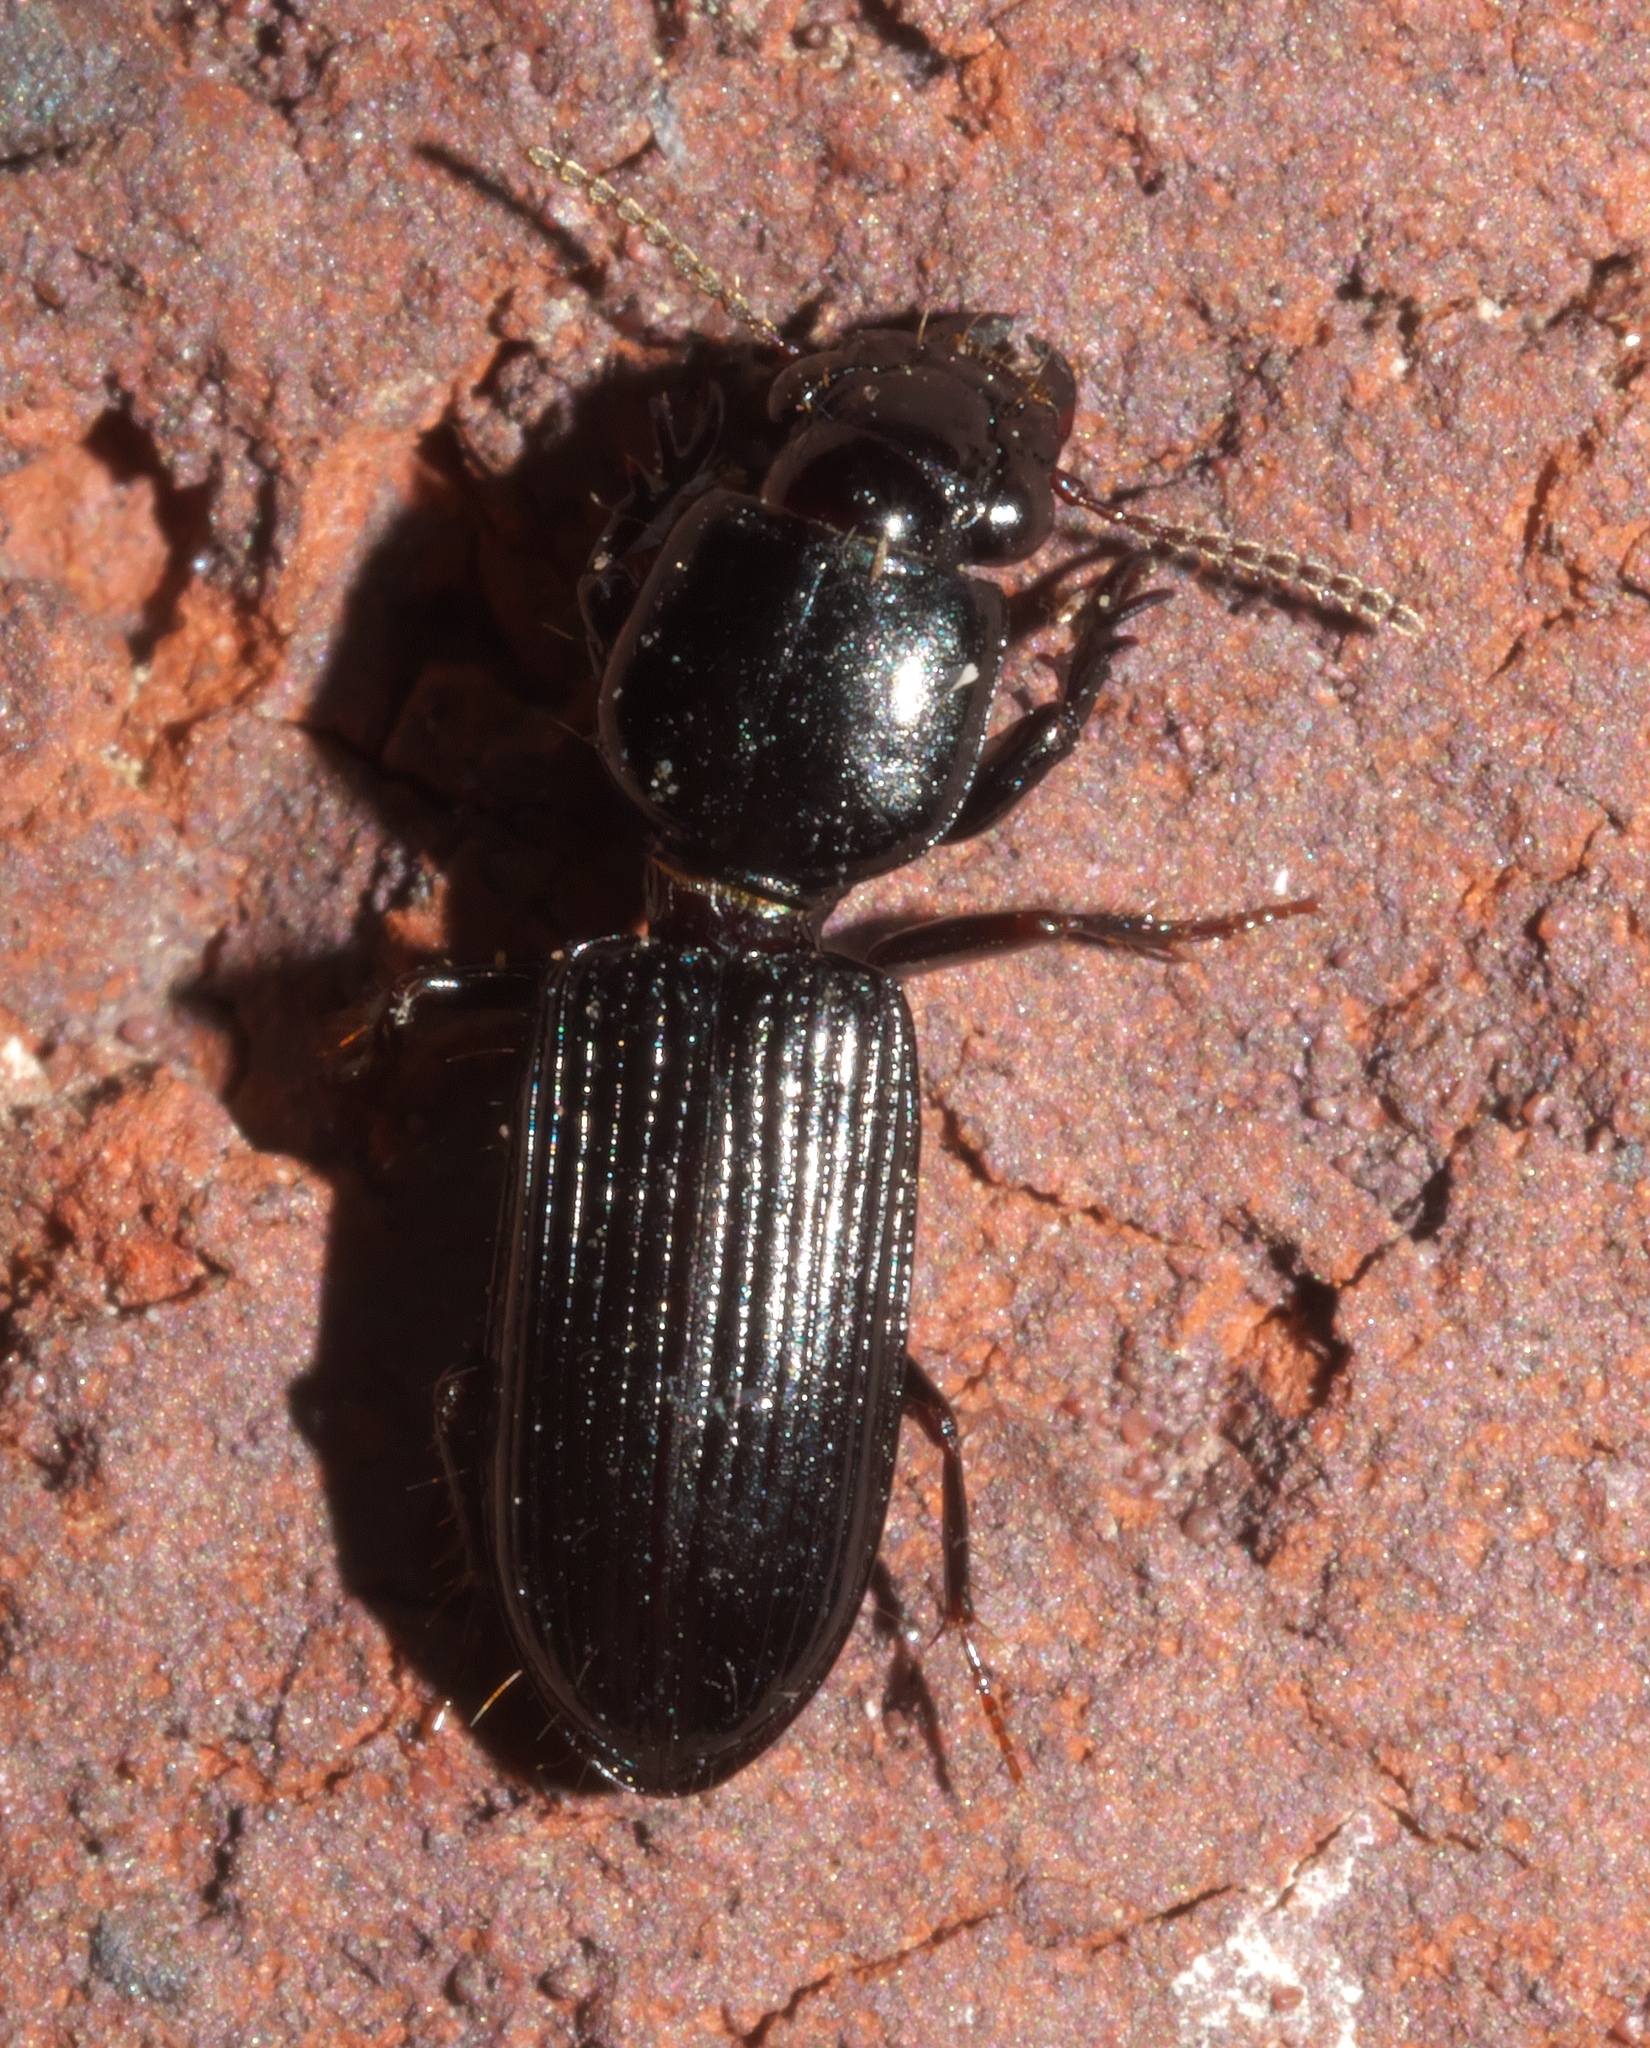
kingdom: Animalia
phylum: Arthropoda
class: Insecta
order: Coleoptera
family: Carabidae
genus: Semiclivina
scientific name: Semiclivina dentipes
